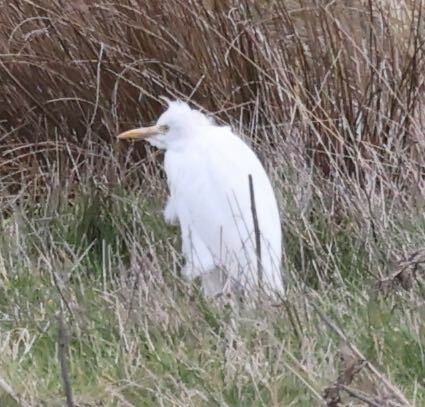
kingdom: Animalia
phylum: Chordata
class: Aves
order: Pelecaniformes
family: Ardeidae
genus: Bubulcus
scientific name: Bubulcus ibis
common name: Cattle egret
